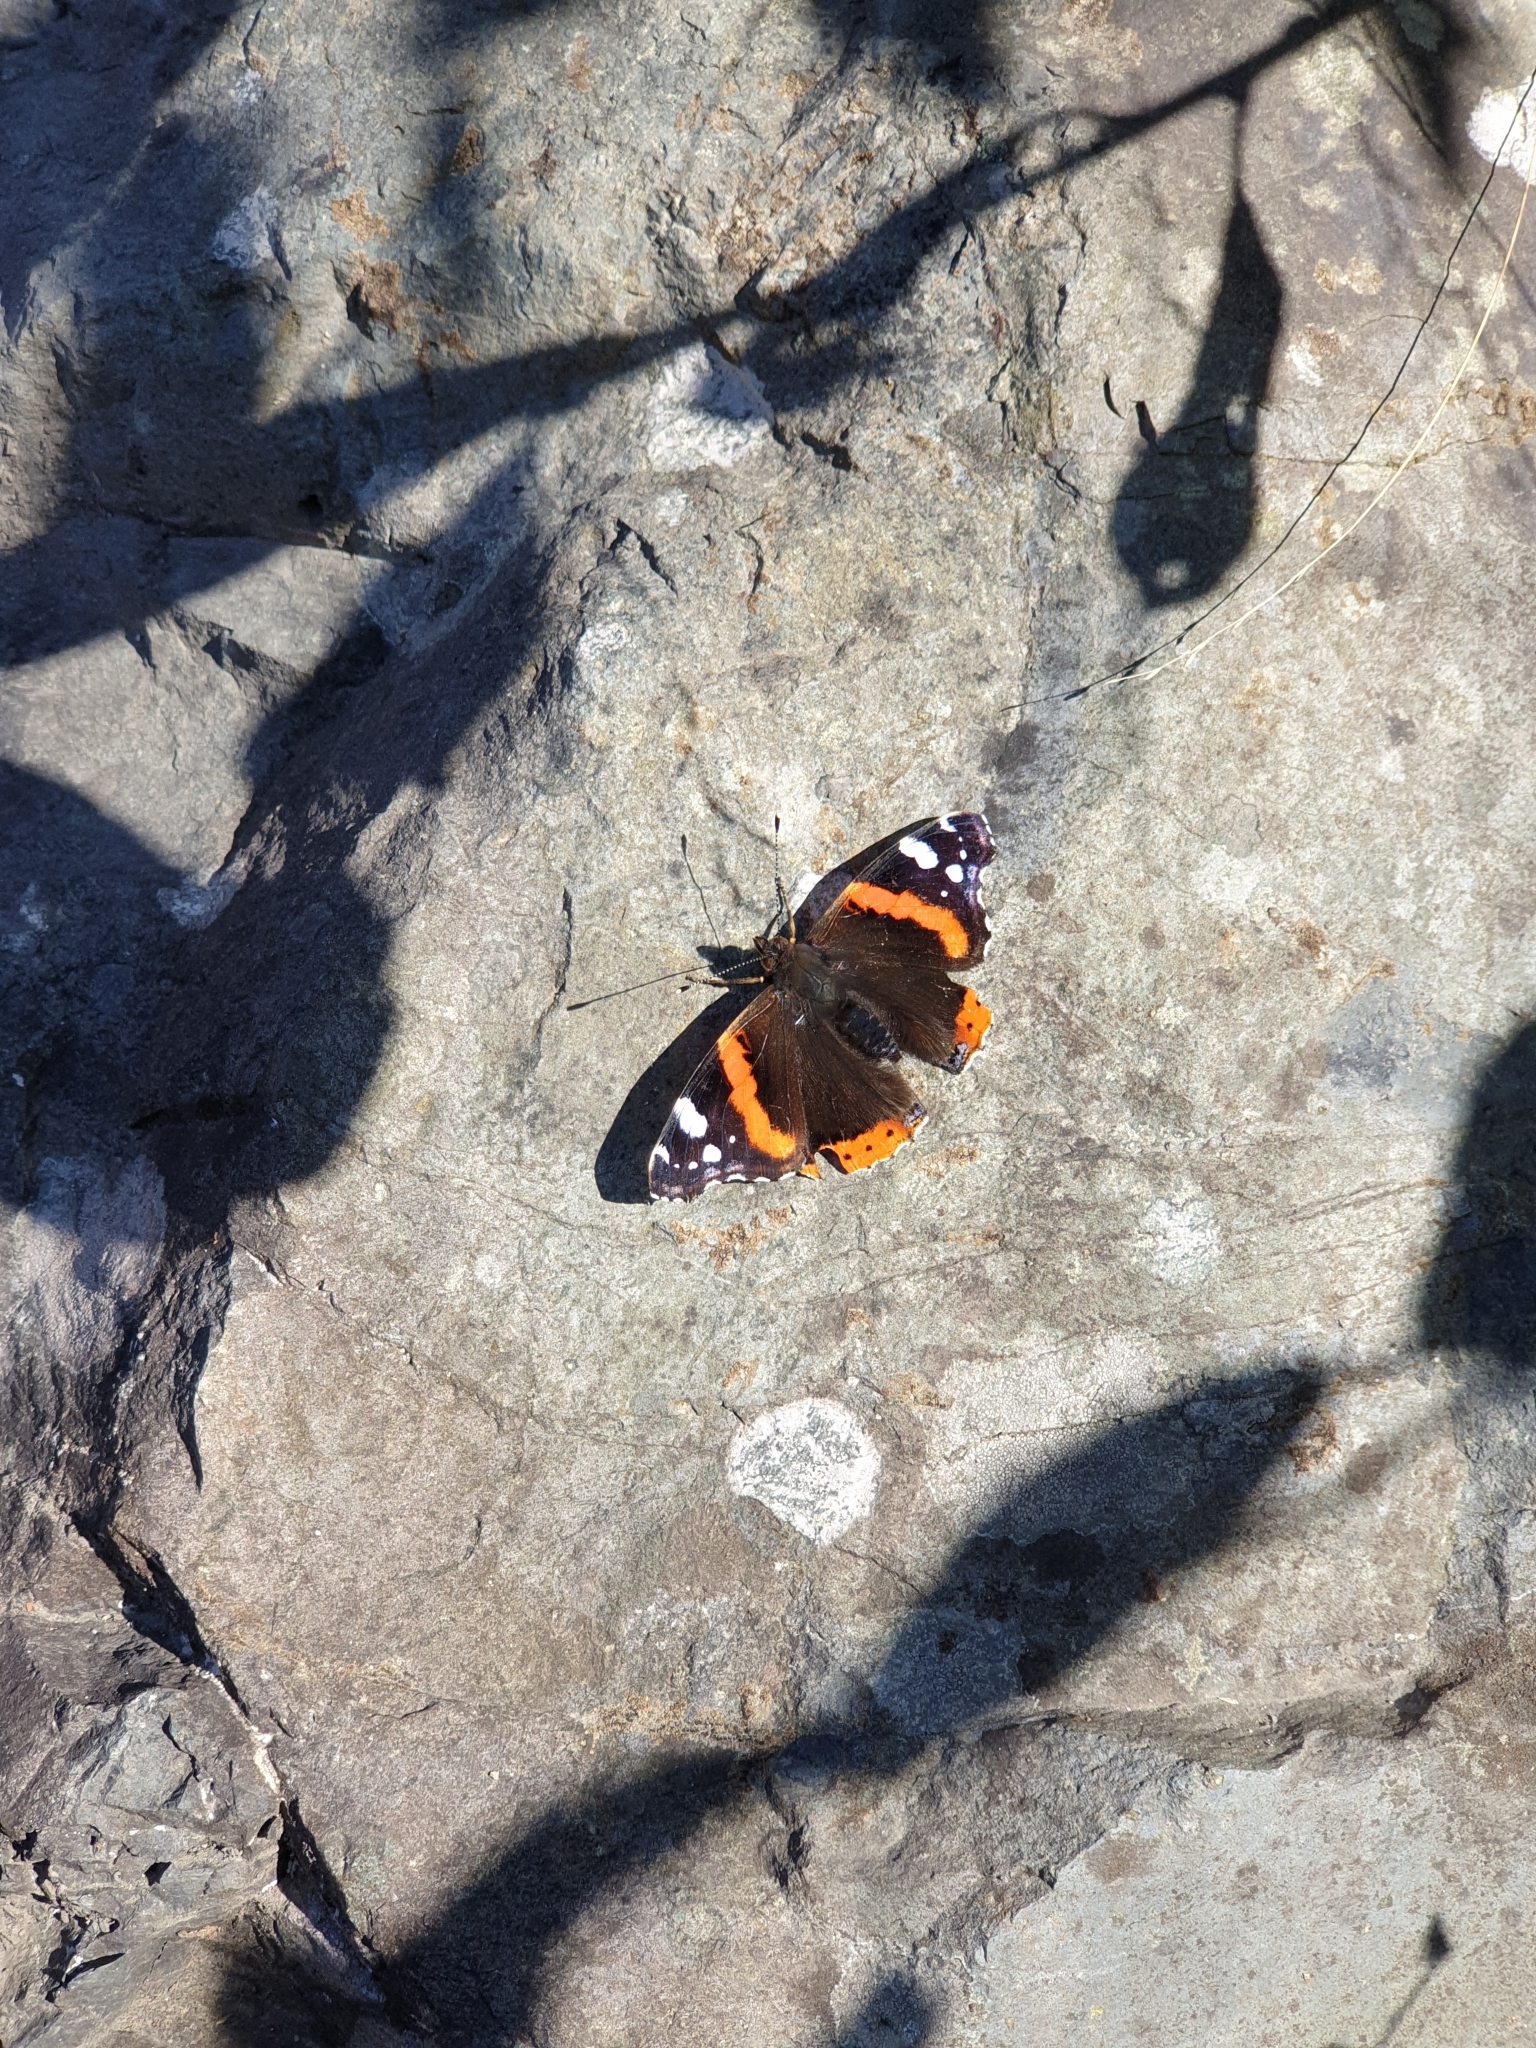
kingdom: Animalia
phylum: Arthropoda
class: Insecta
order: Lepidoptera
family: Nymphalidae
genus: Vanessa
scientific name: Vanessa atalanta
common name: Red admiral
